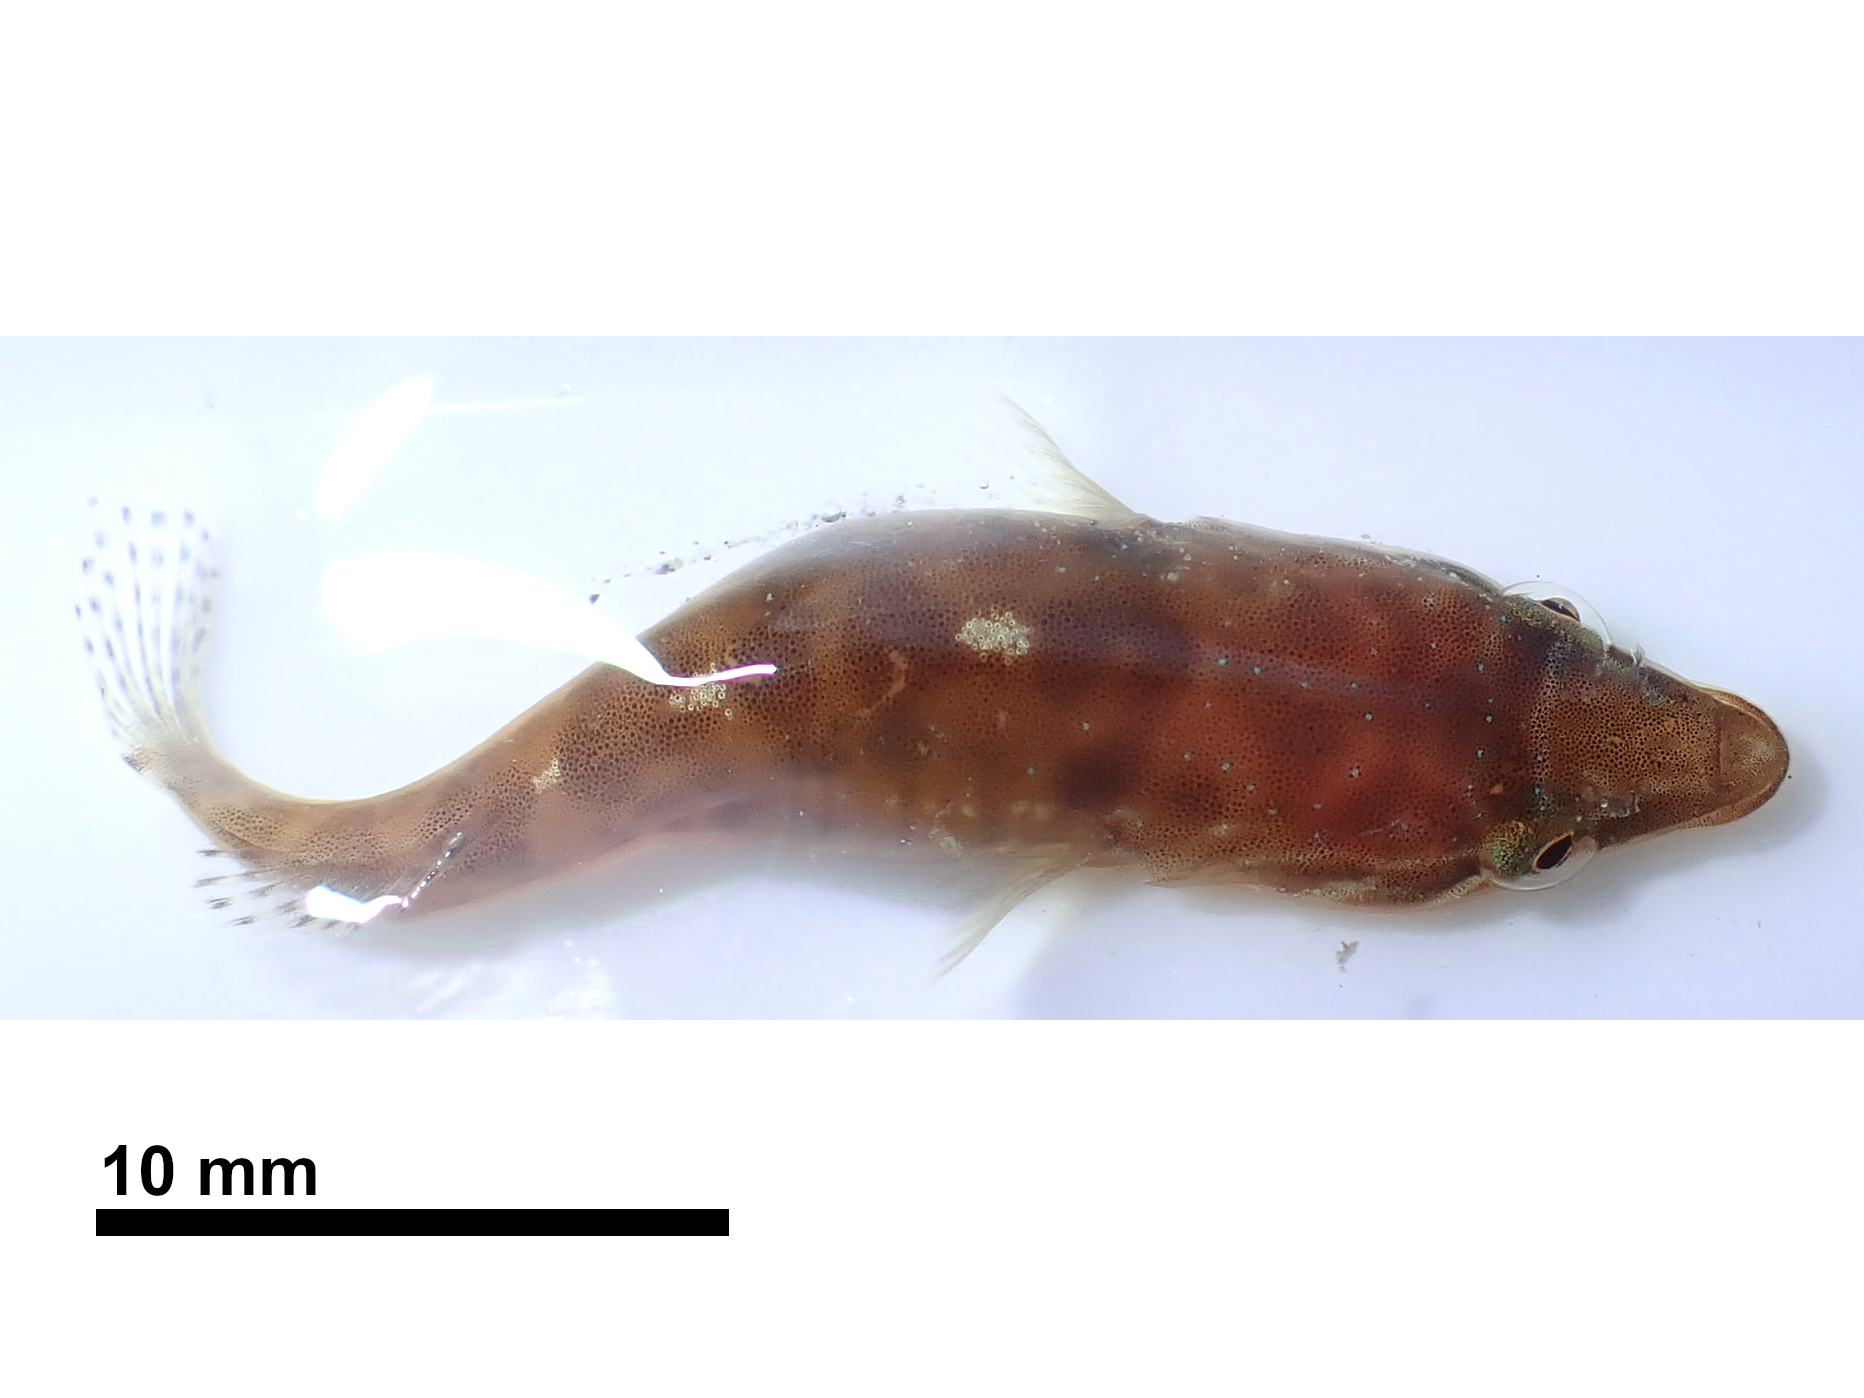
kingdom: Animalia
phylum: Chordata
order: Gobiesociformes
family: Gobiesocidae
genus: Dellichthys
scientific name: Dellichthys morelandi
